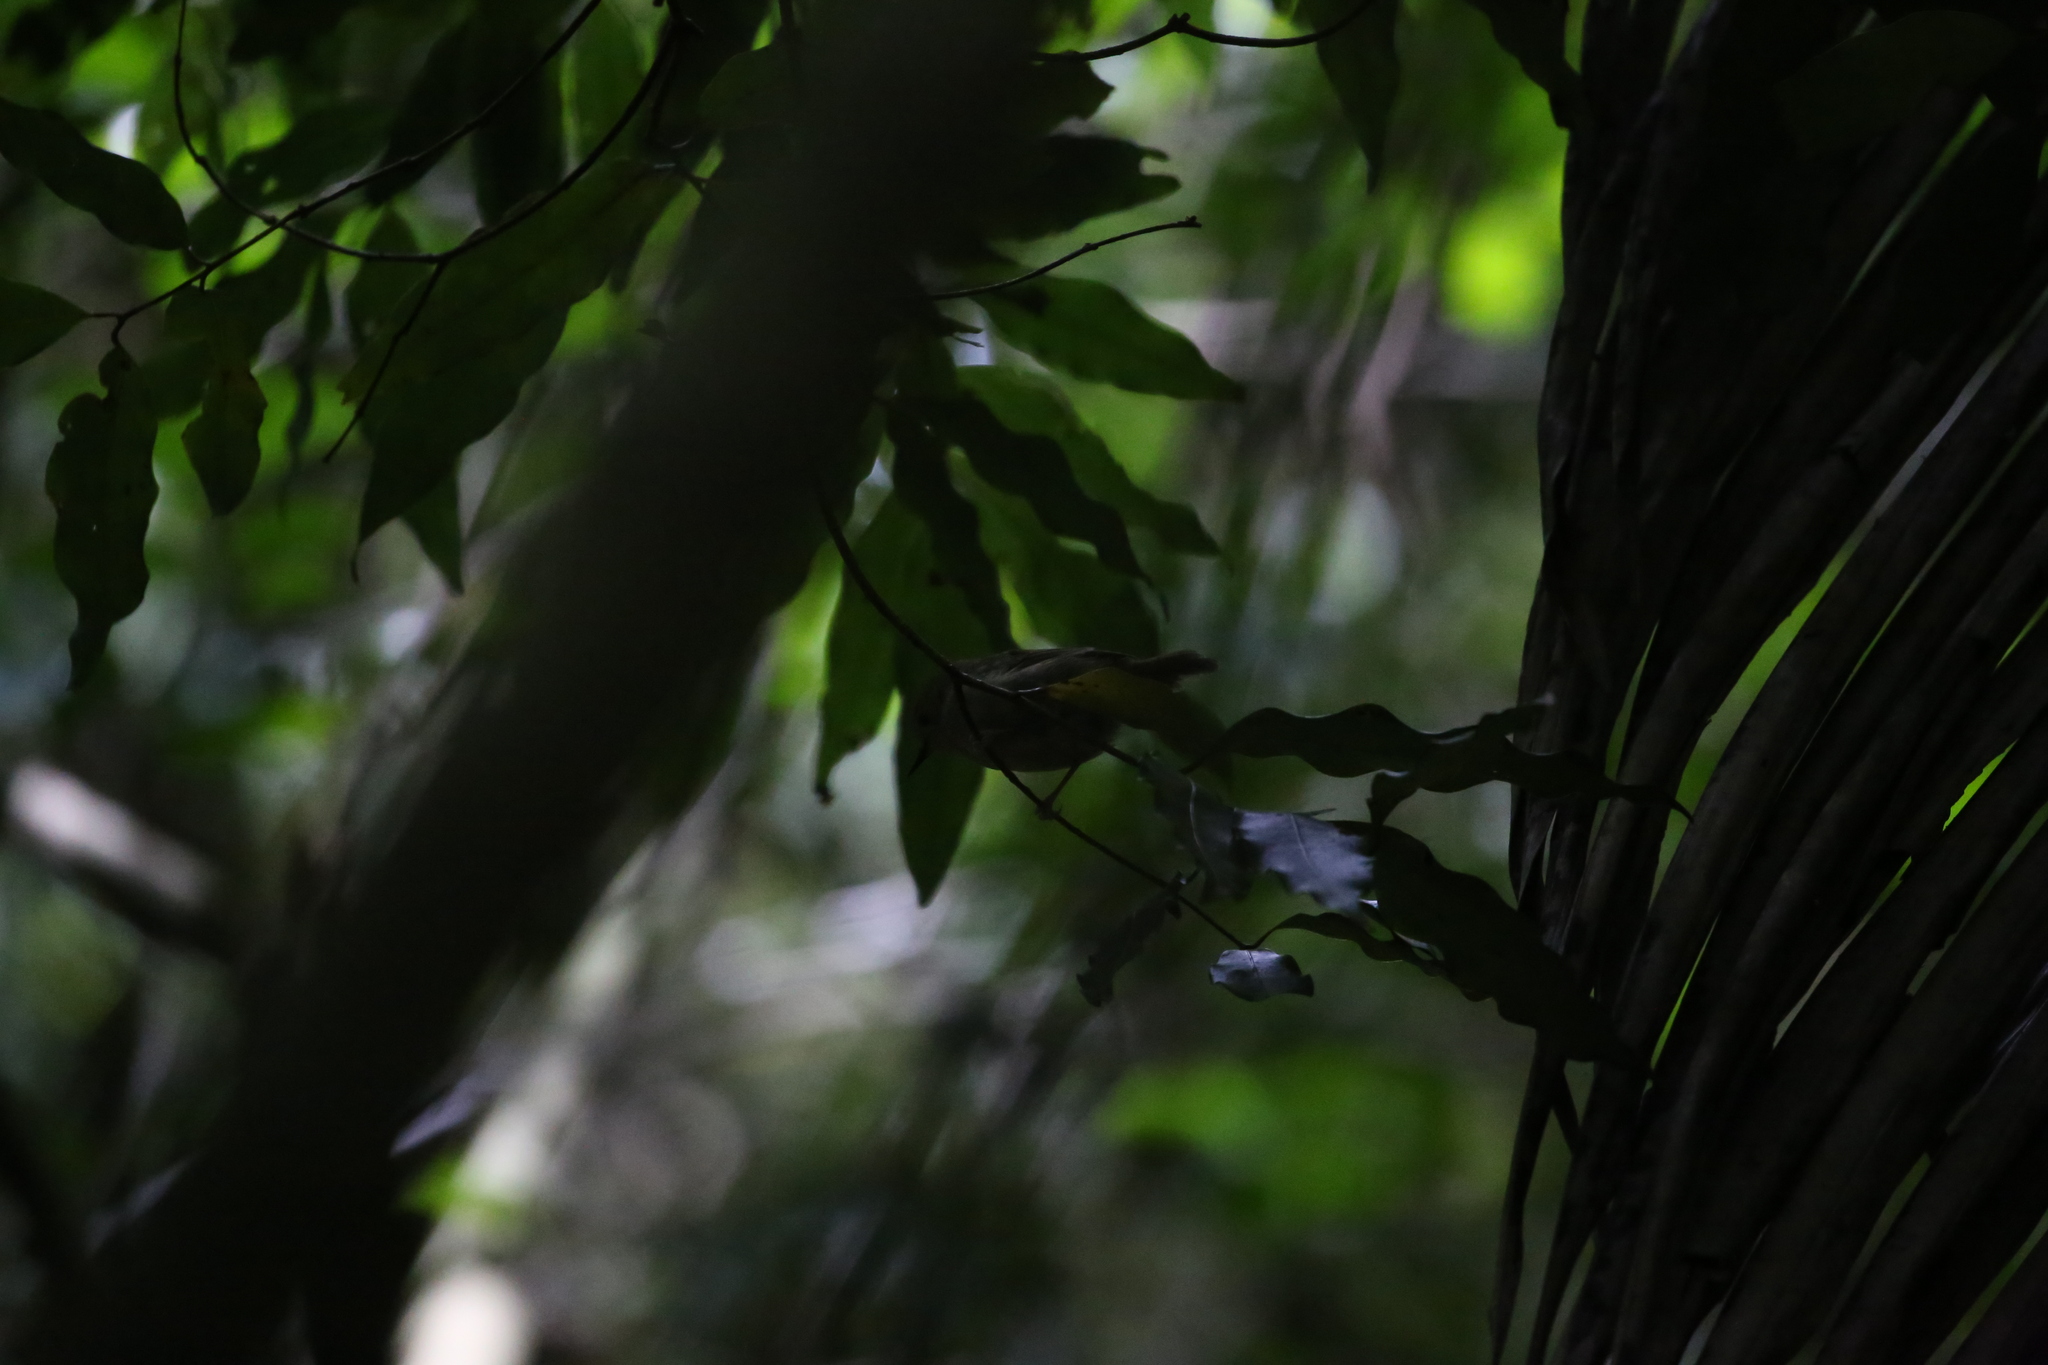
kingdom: Animalia
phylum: Chordata
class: Aves
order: Passeriformes
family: Acanthizidae
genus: Sericornis
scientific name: Sericornis magnirostra
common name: Large-billed scrubwren
